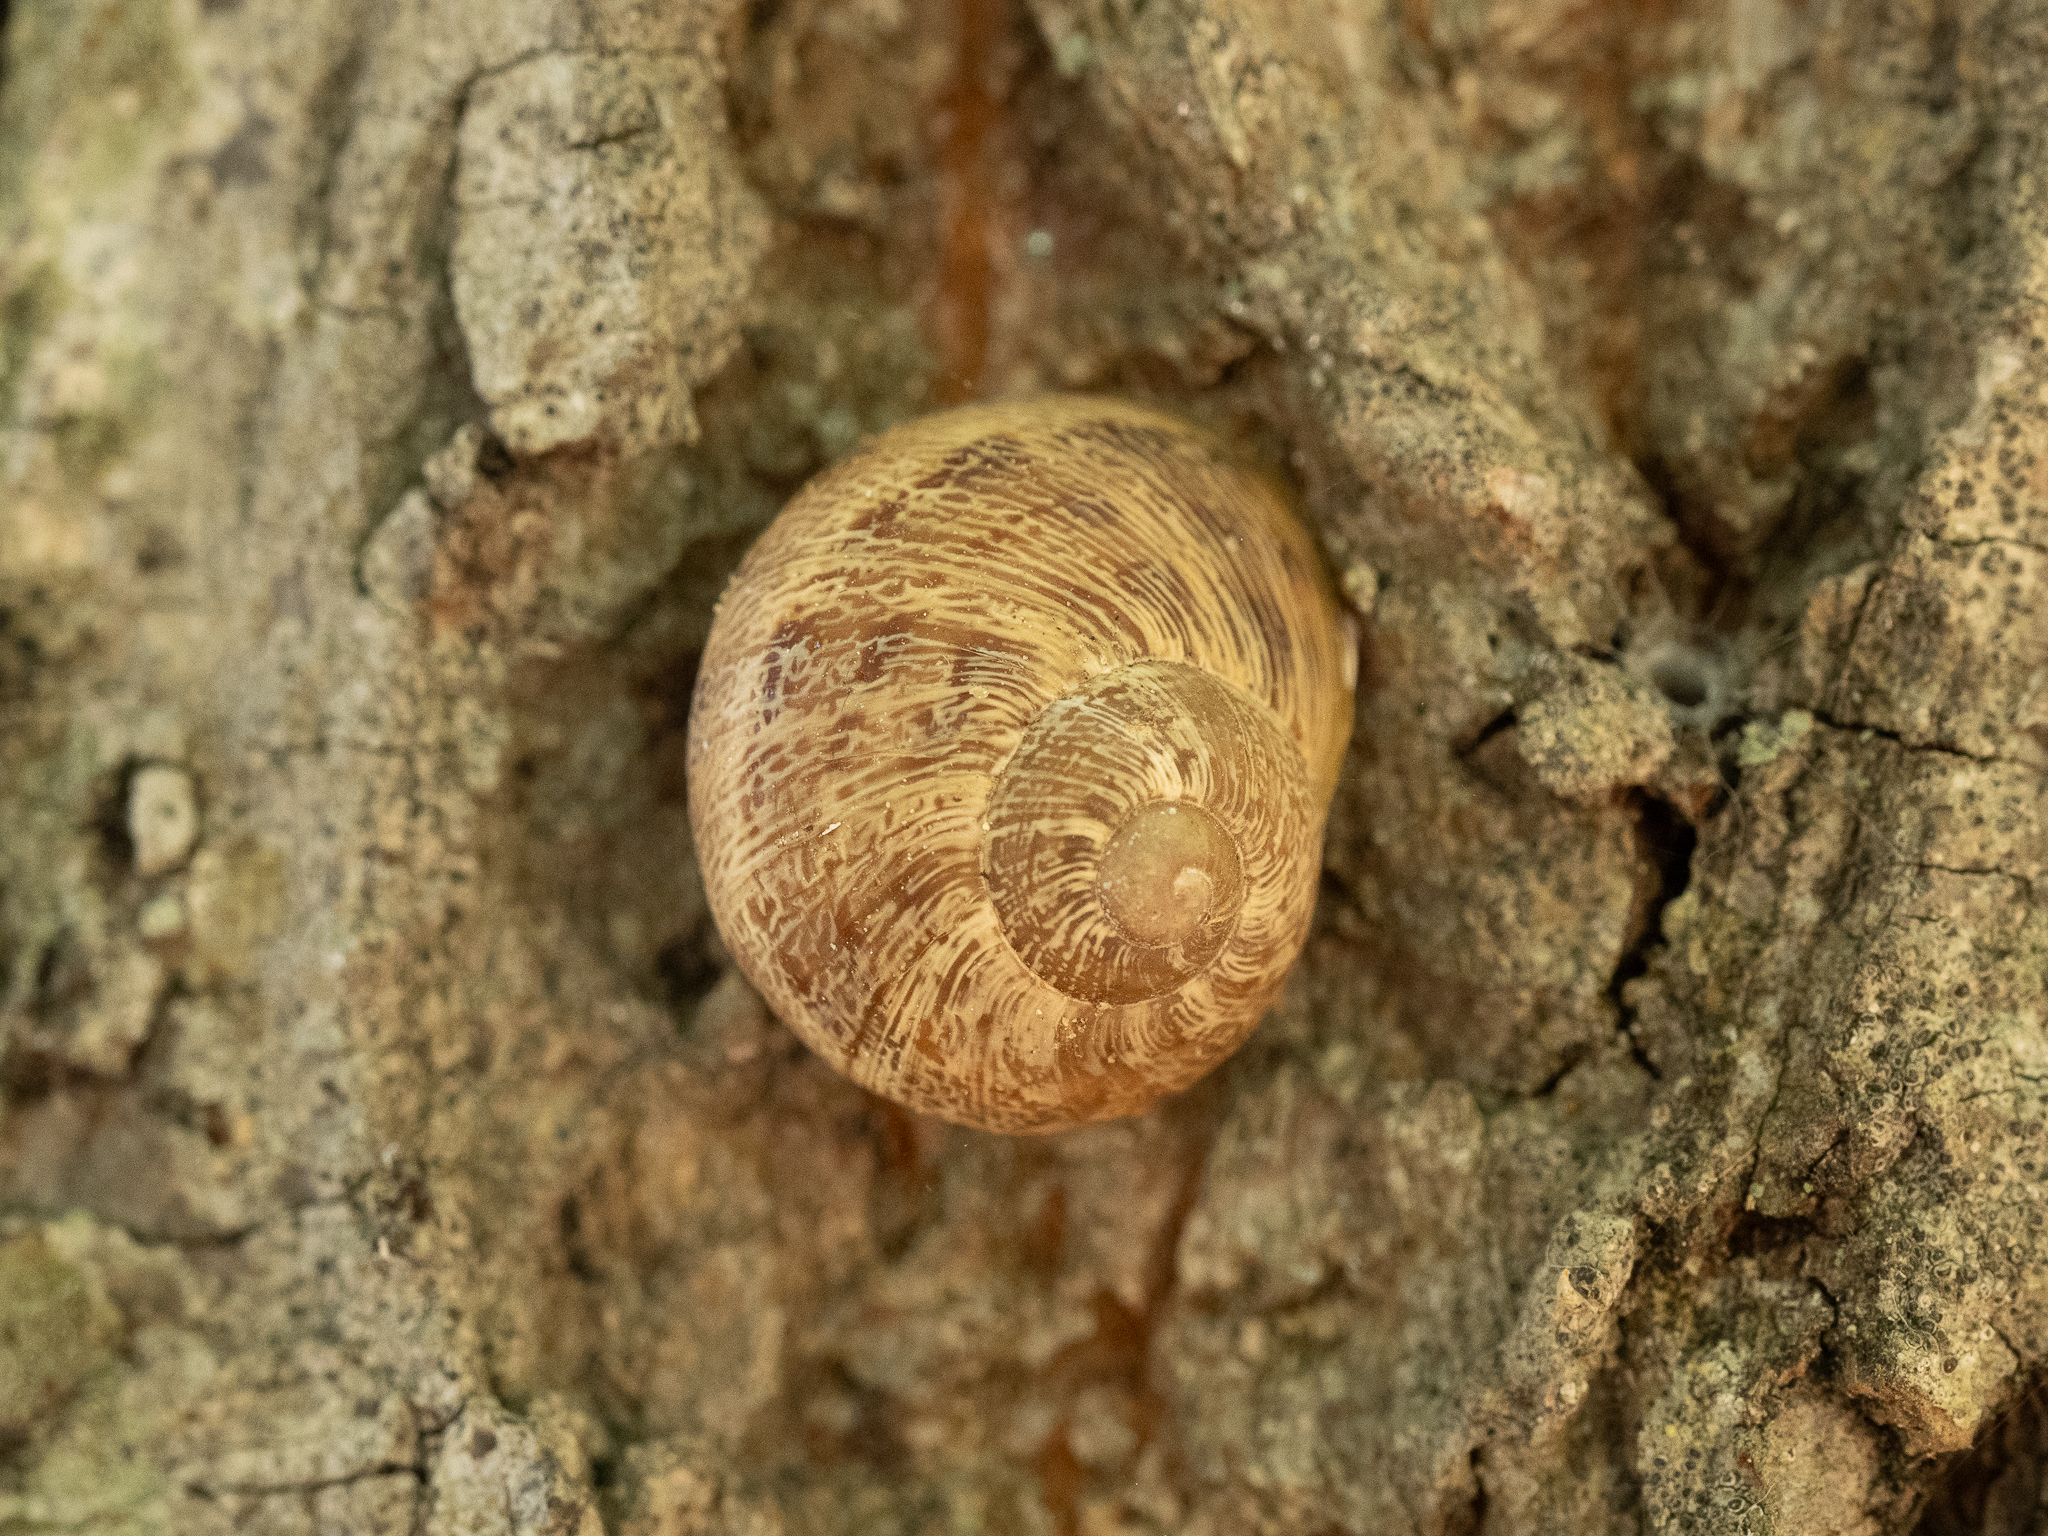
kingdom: Animalia
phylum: Mollusca
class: Gastropoda
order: Stylommatophora
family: Helicidae
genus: Cornu
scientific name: Cornu aspersum
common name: Brown garden snail
